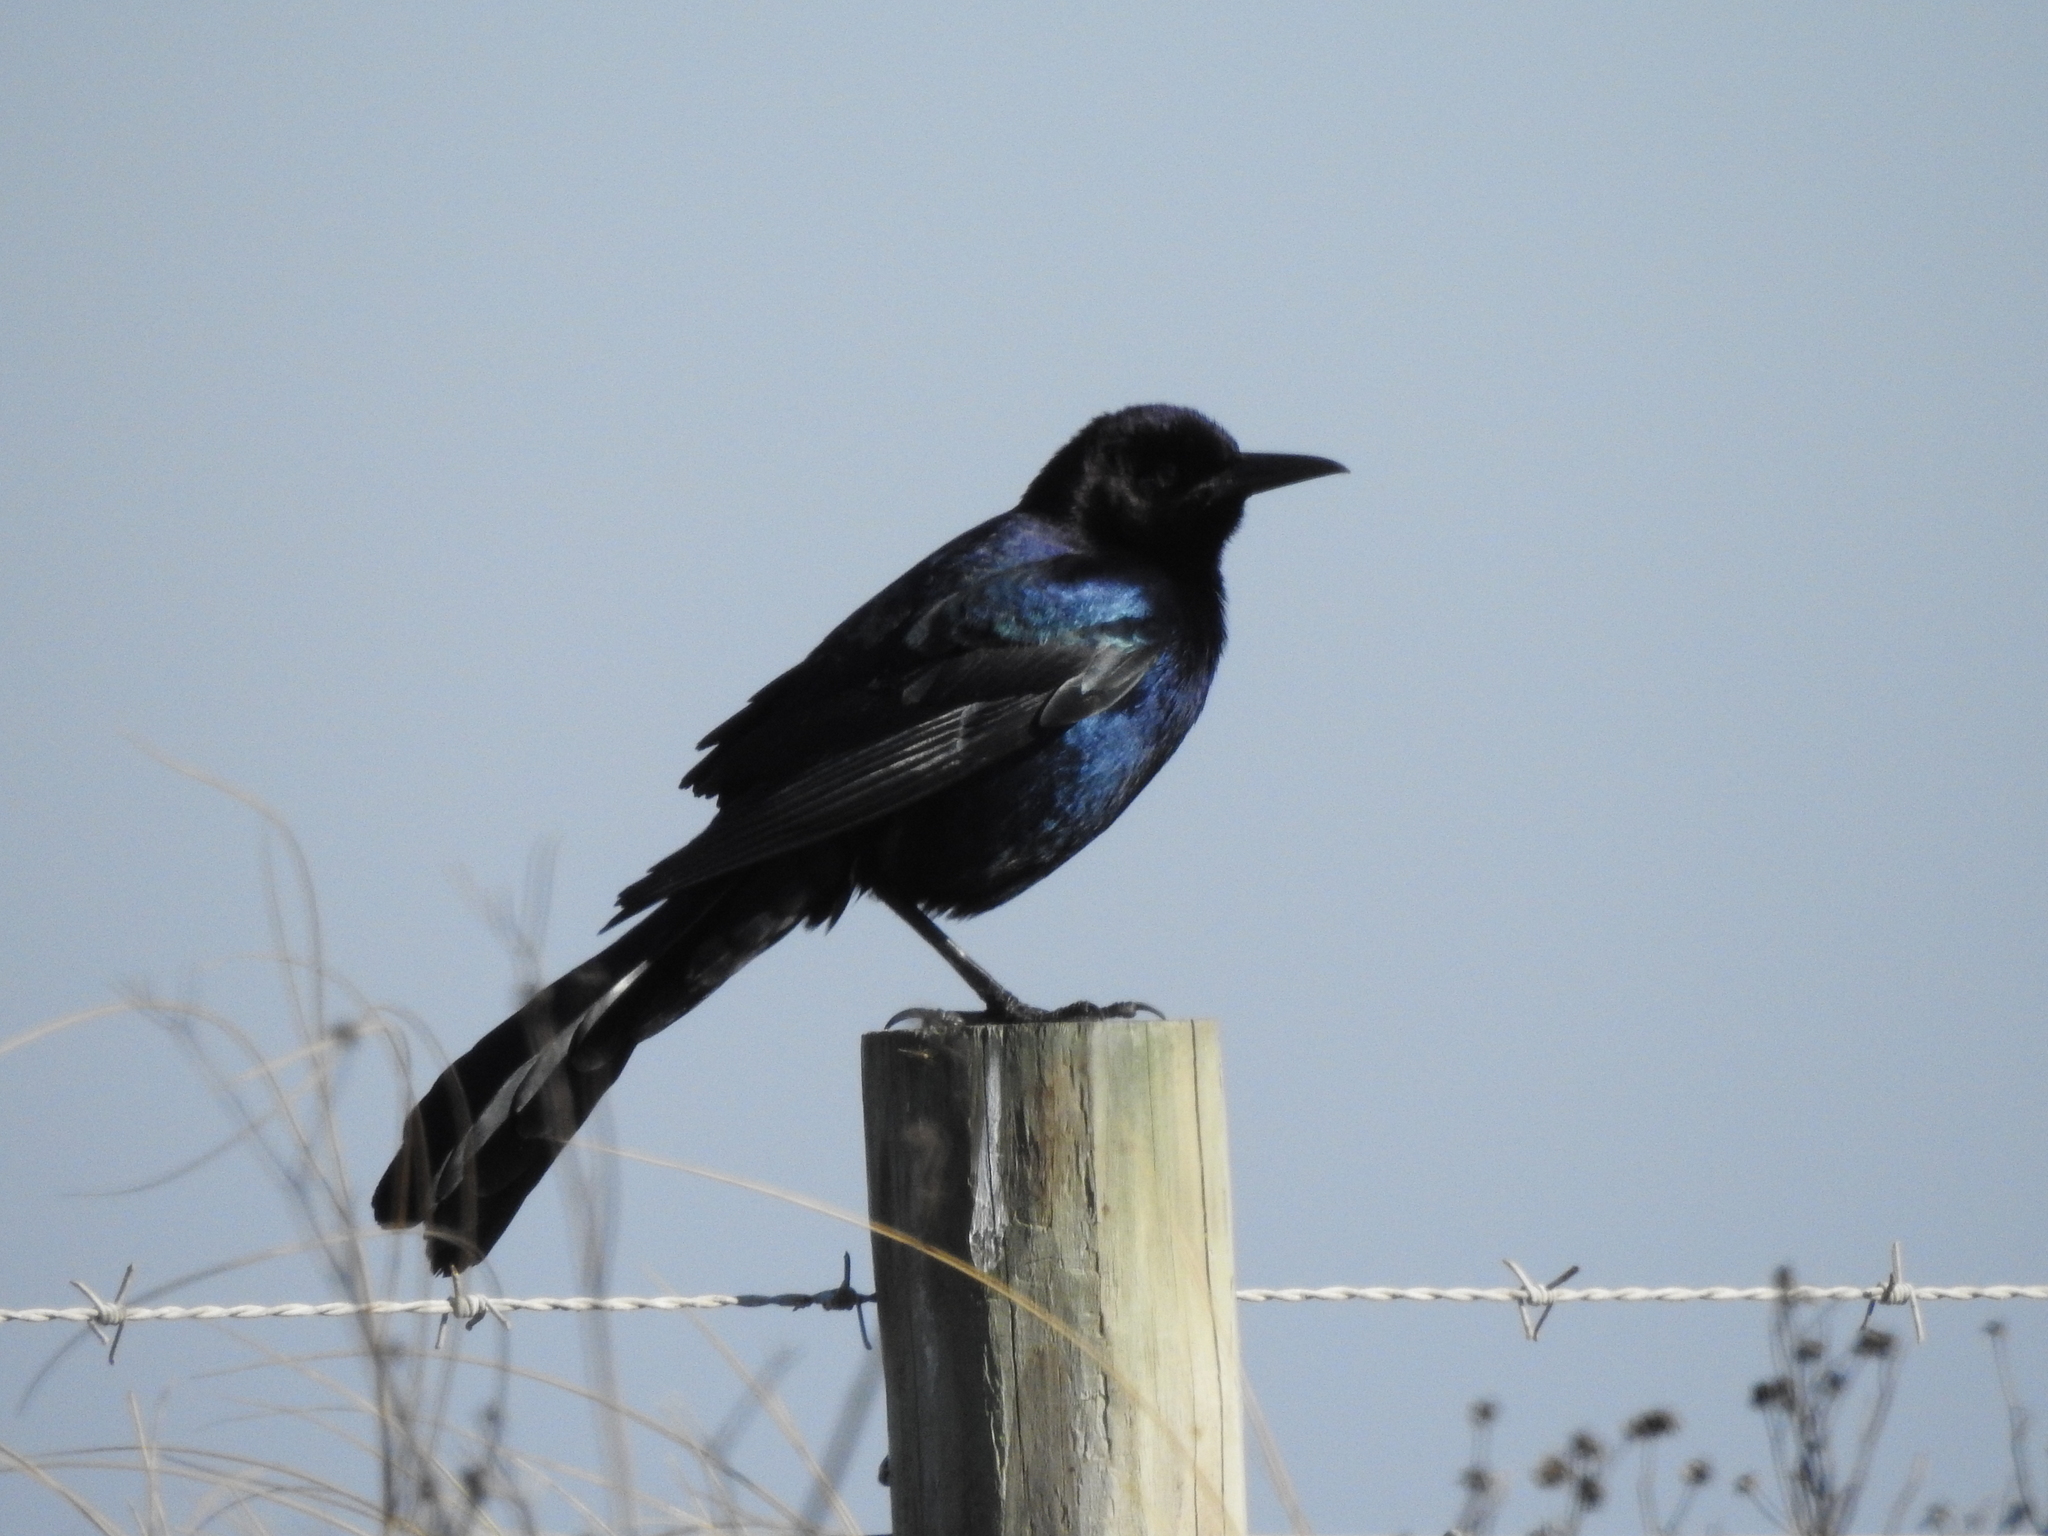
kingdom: Animalia
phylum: Chordata
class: Aves
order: Passeriformes
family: Icteridae
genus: Quiscalus
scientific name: Quiscalus major
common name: Boat-tailed grackle
